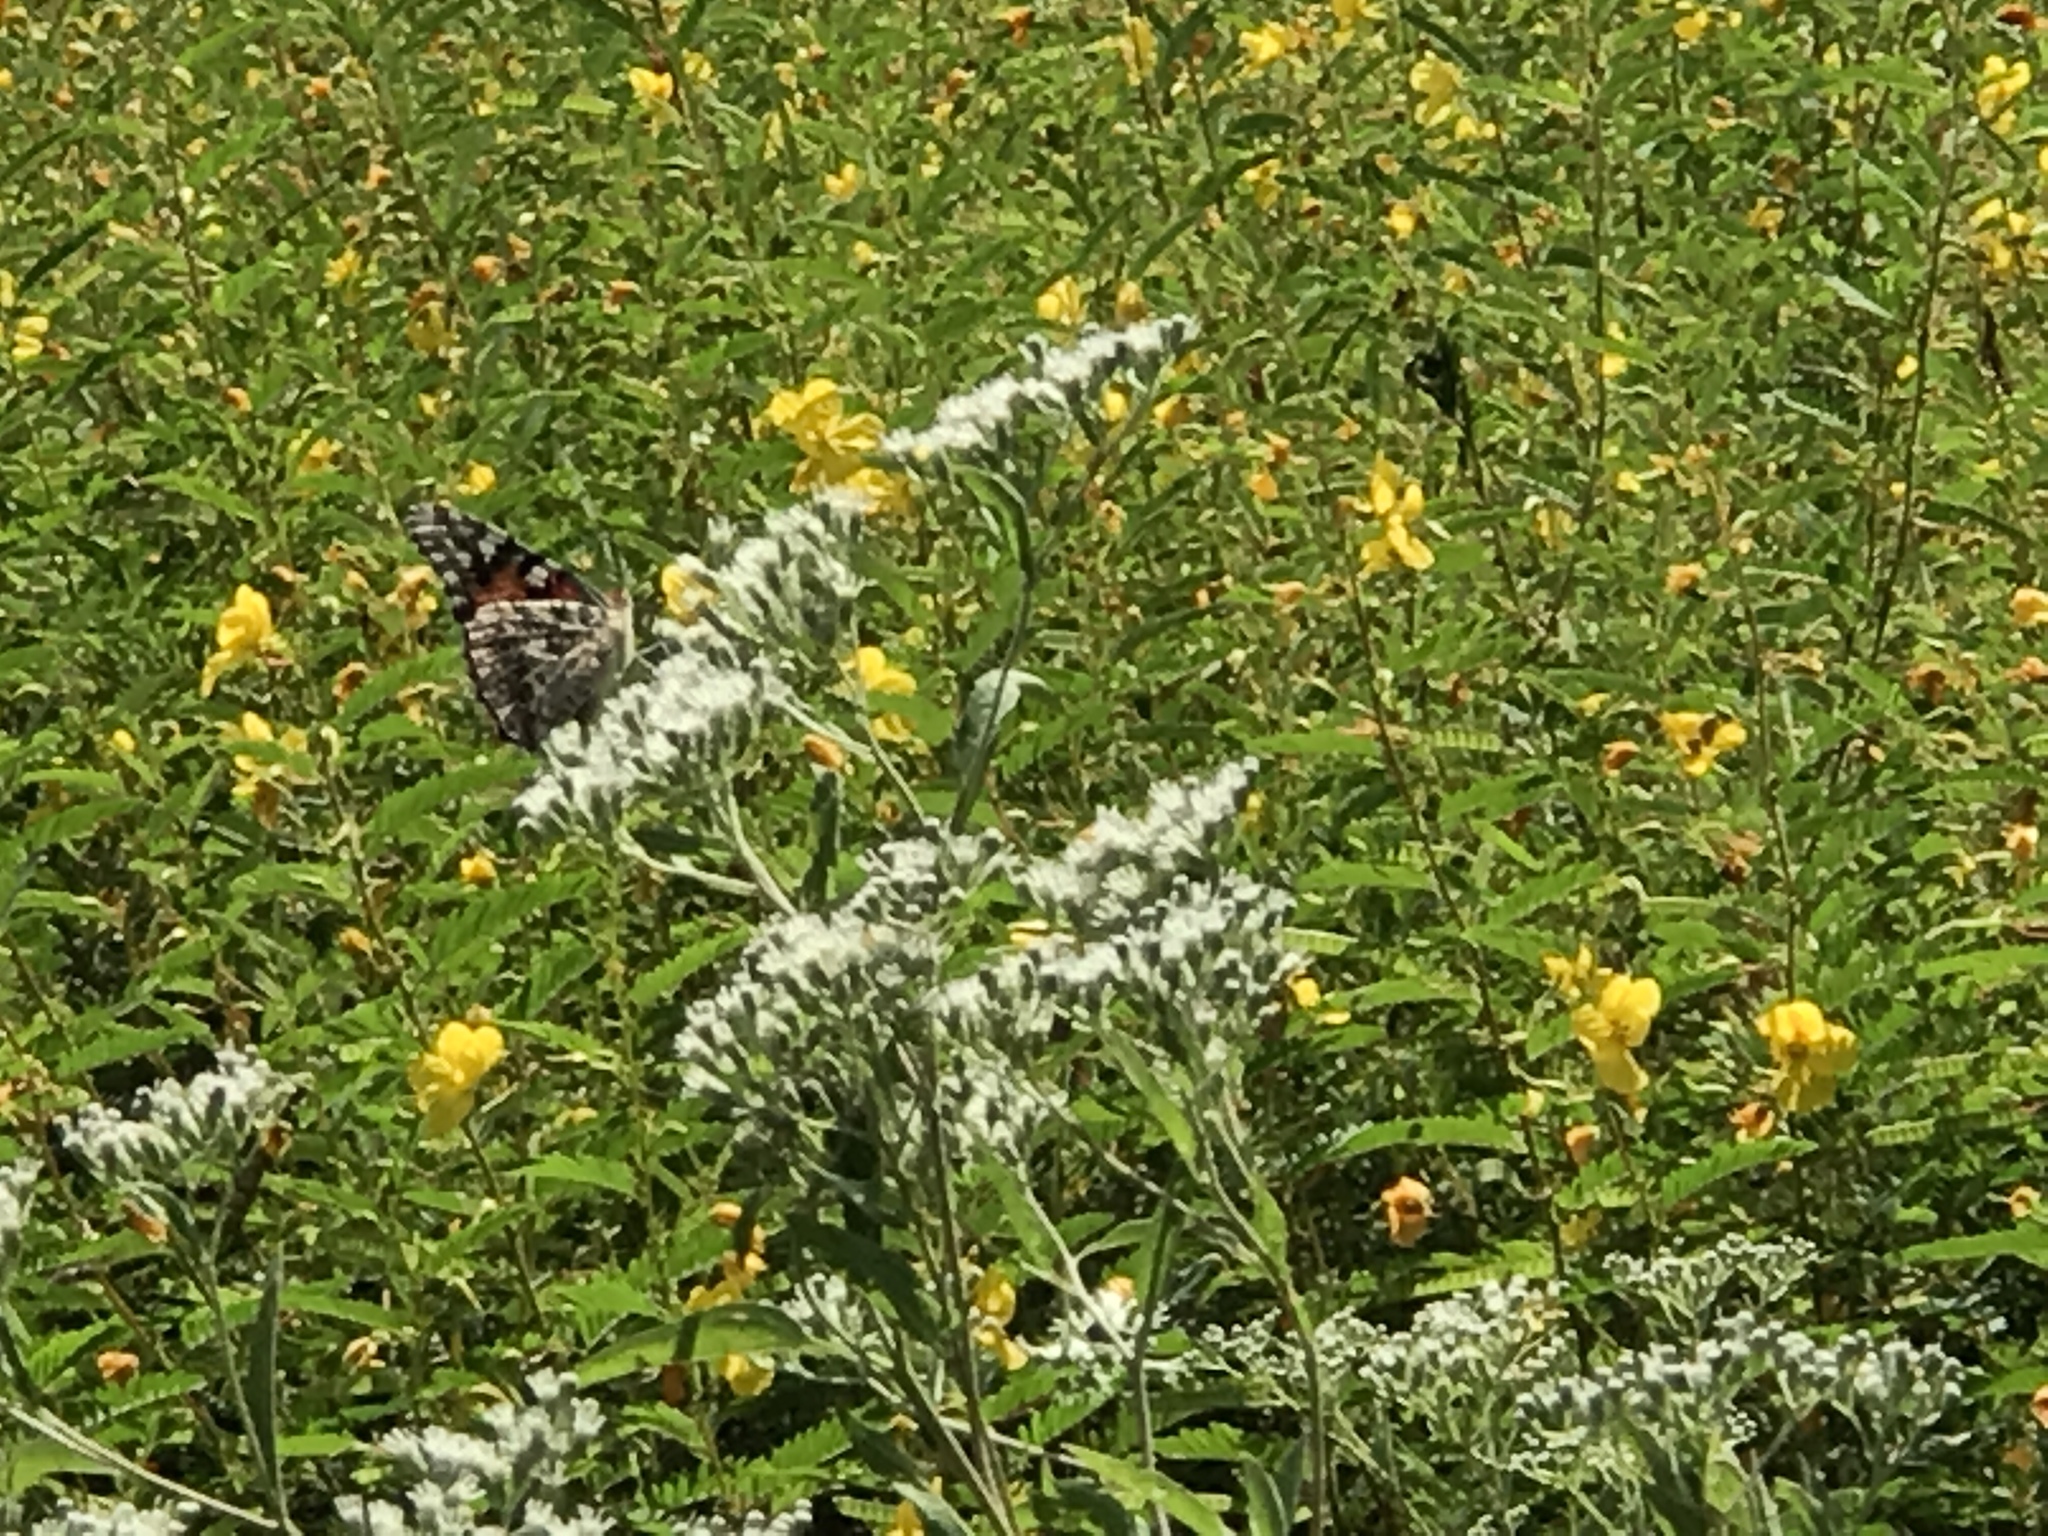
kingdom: Animalia
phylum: Arthropoda
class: Insecta
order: Lepidoptera
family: Nymphalidae
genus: Vanessa
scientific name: Vanessa cardui
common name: Painted lady
